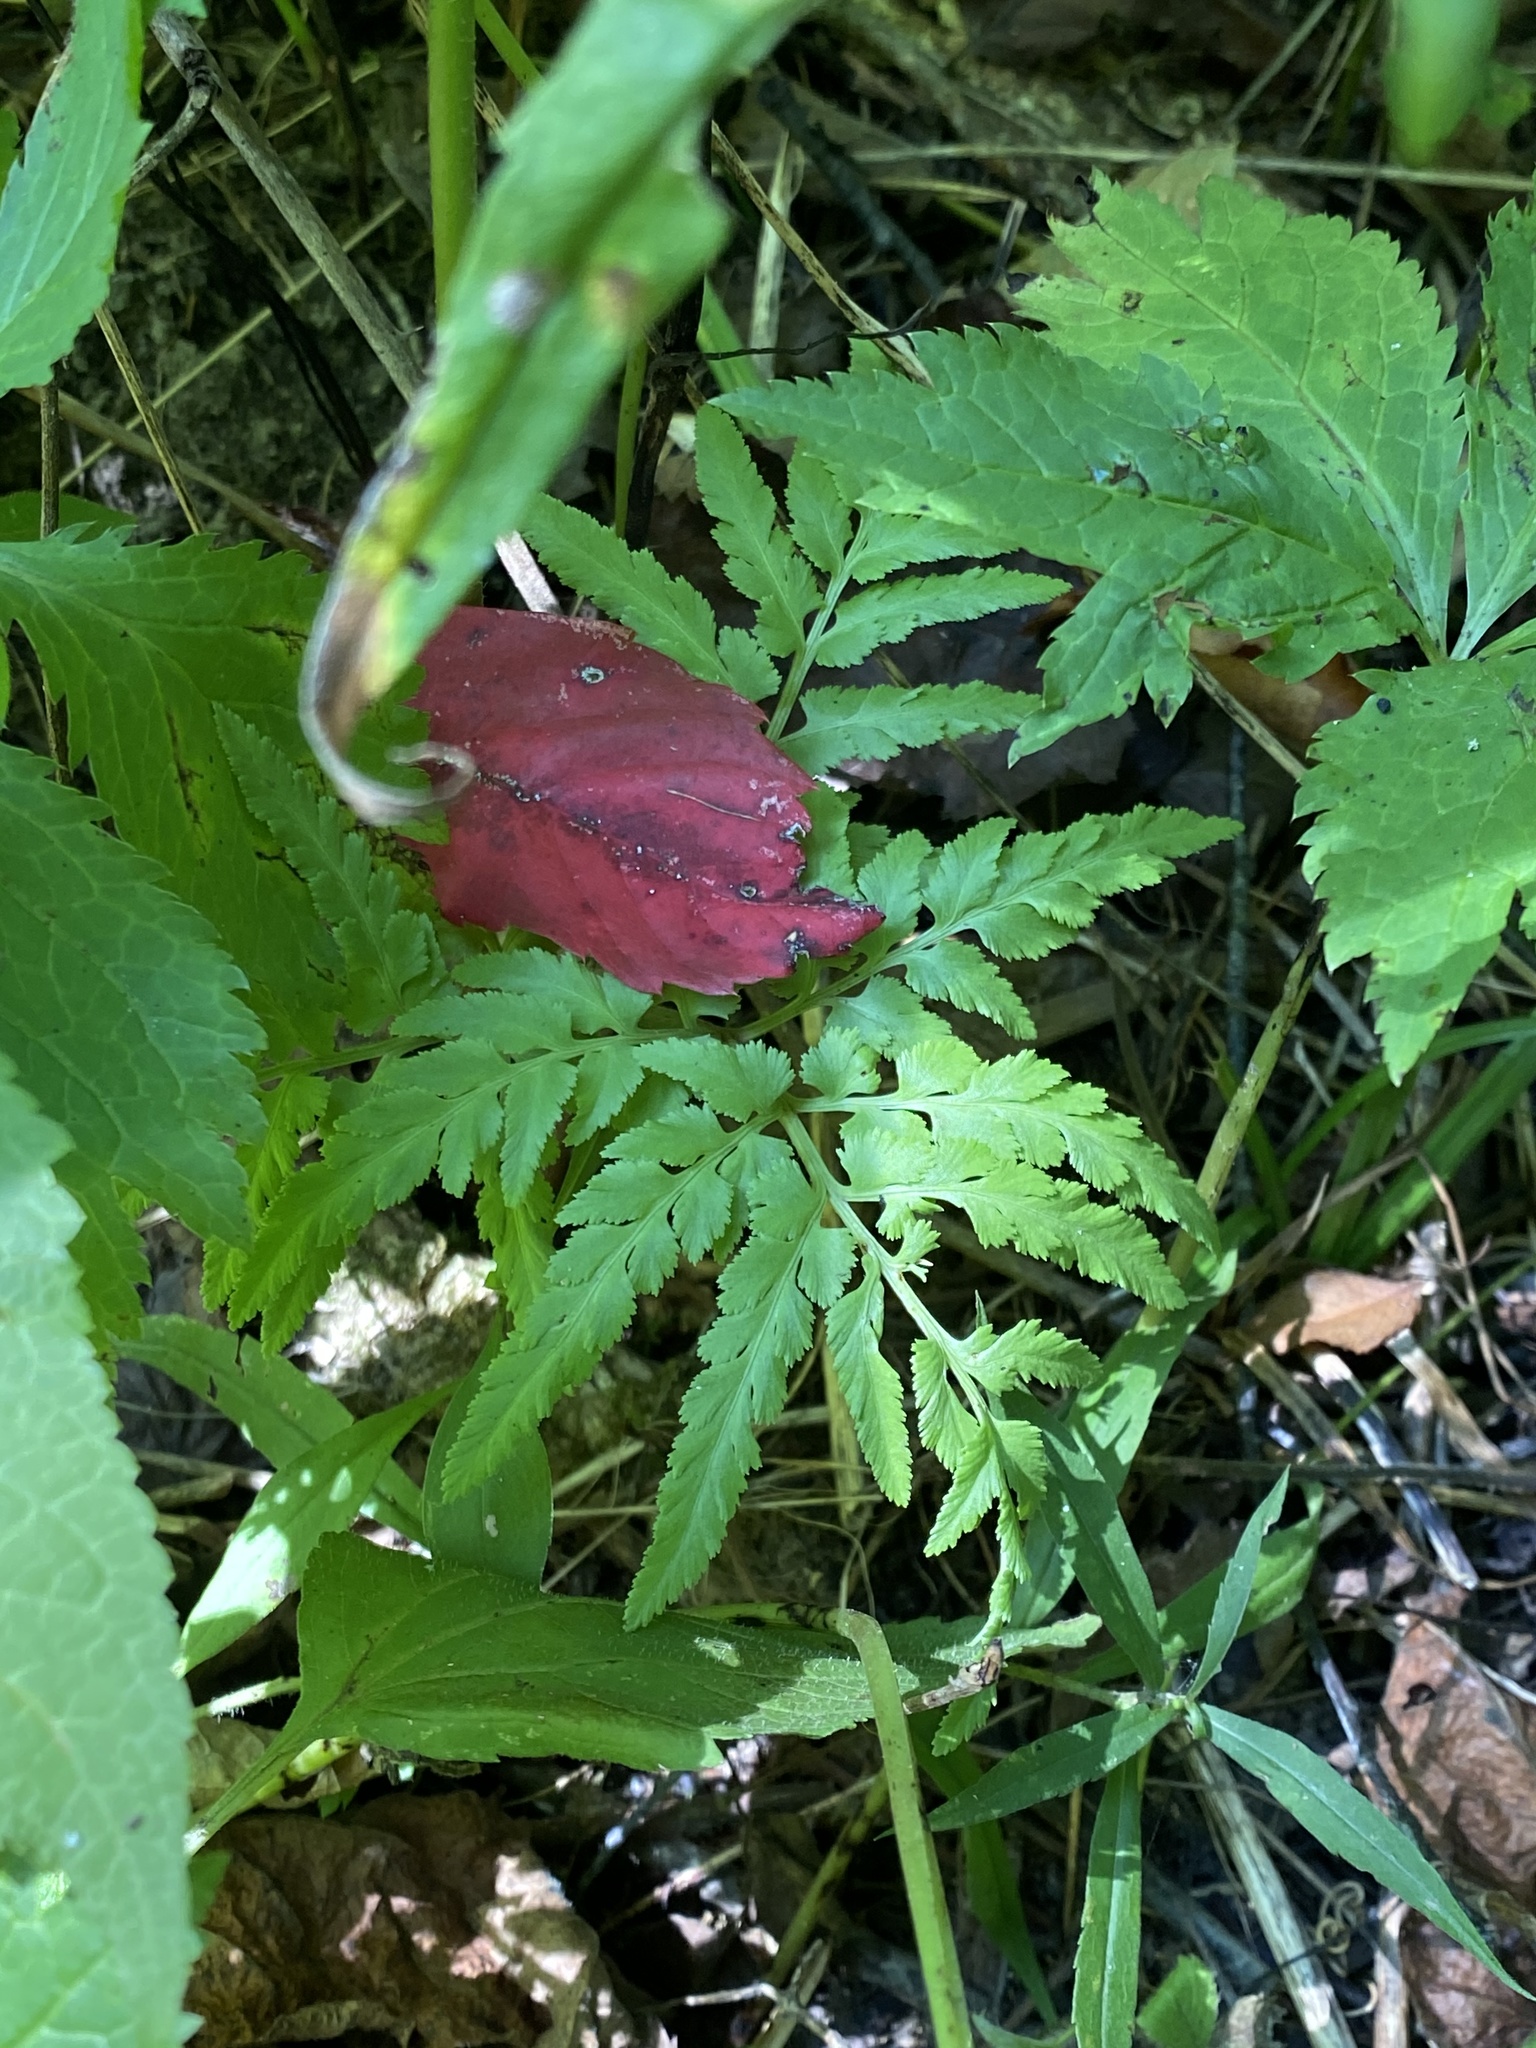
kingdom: Plantae
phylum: Tracheophyta
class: Polypodiopsida
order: Ophioglossales
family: Ophioglossaceae
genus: Sceptridium
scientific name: Sceptridium dissectum
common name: Cut-leaved grapefern
